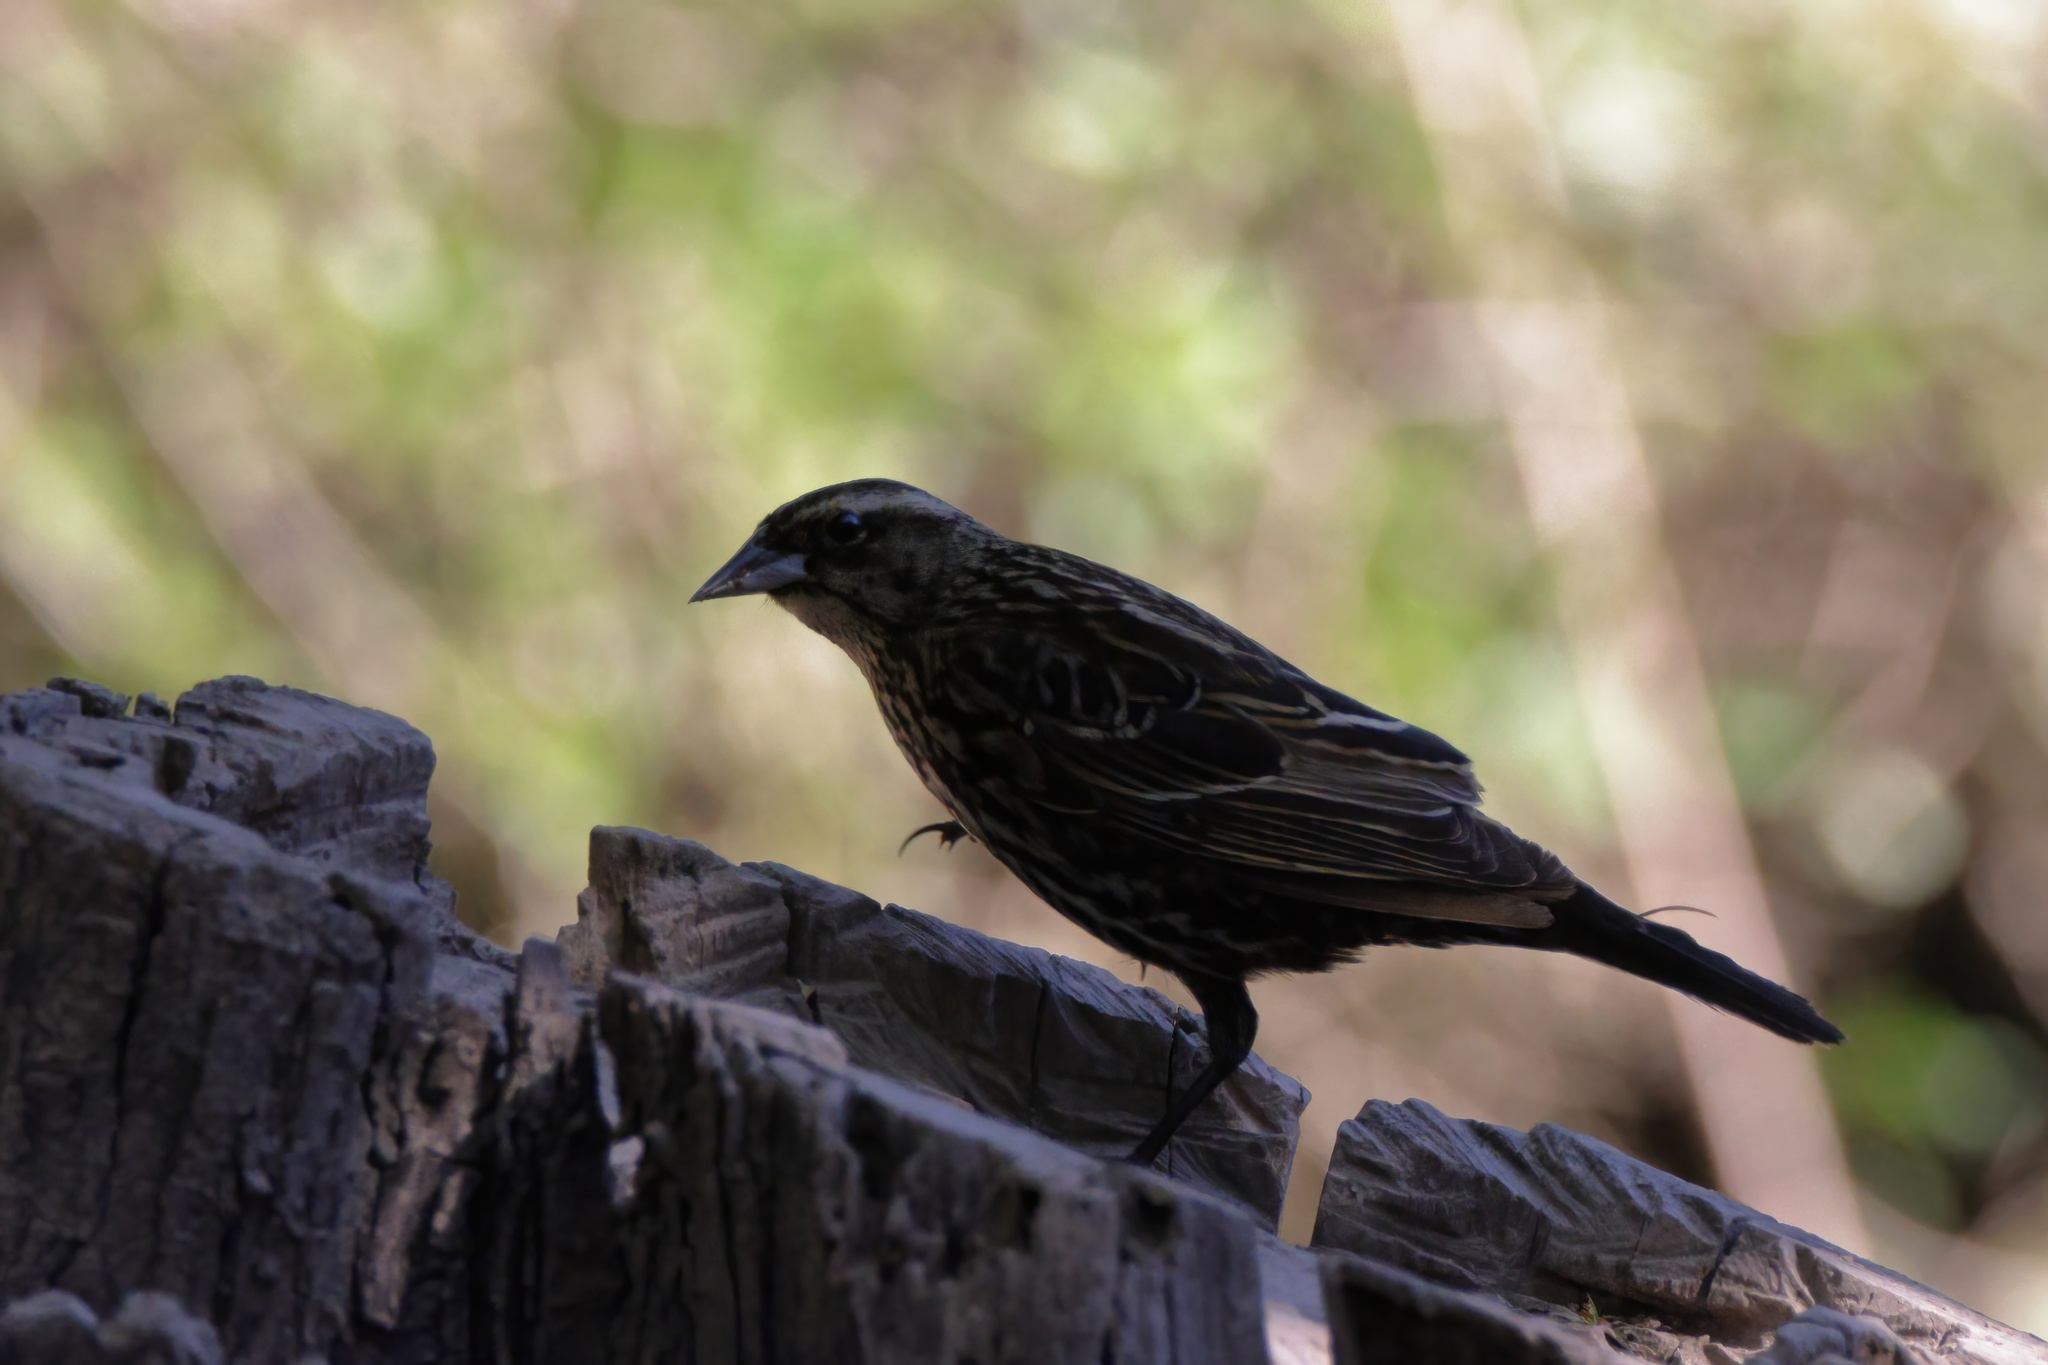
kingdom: Animalia
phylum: Chordata
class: Aves
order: Passeriformes
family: Icteridae
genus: Agelaius
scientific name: Agelaius phoeniceus
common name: Red-winged blackbird
